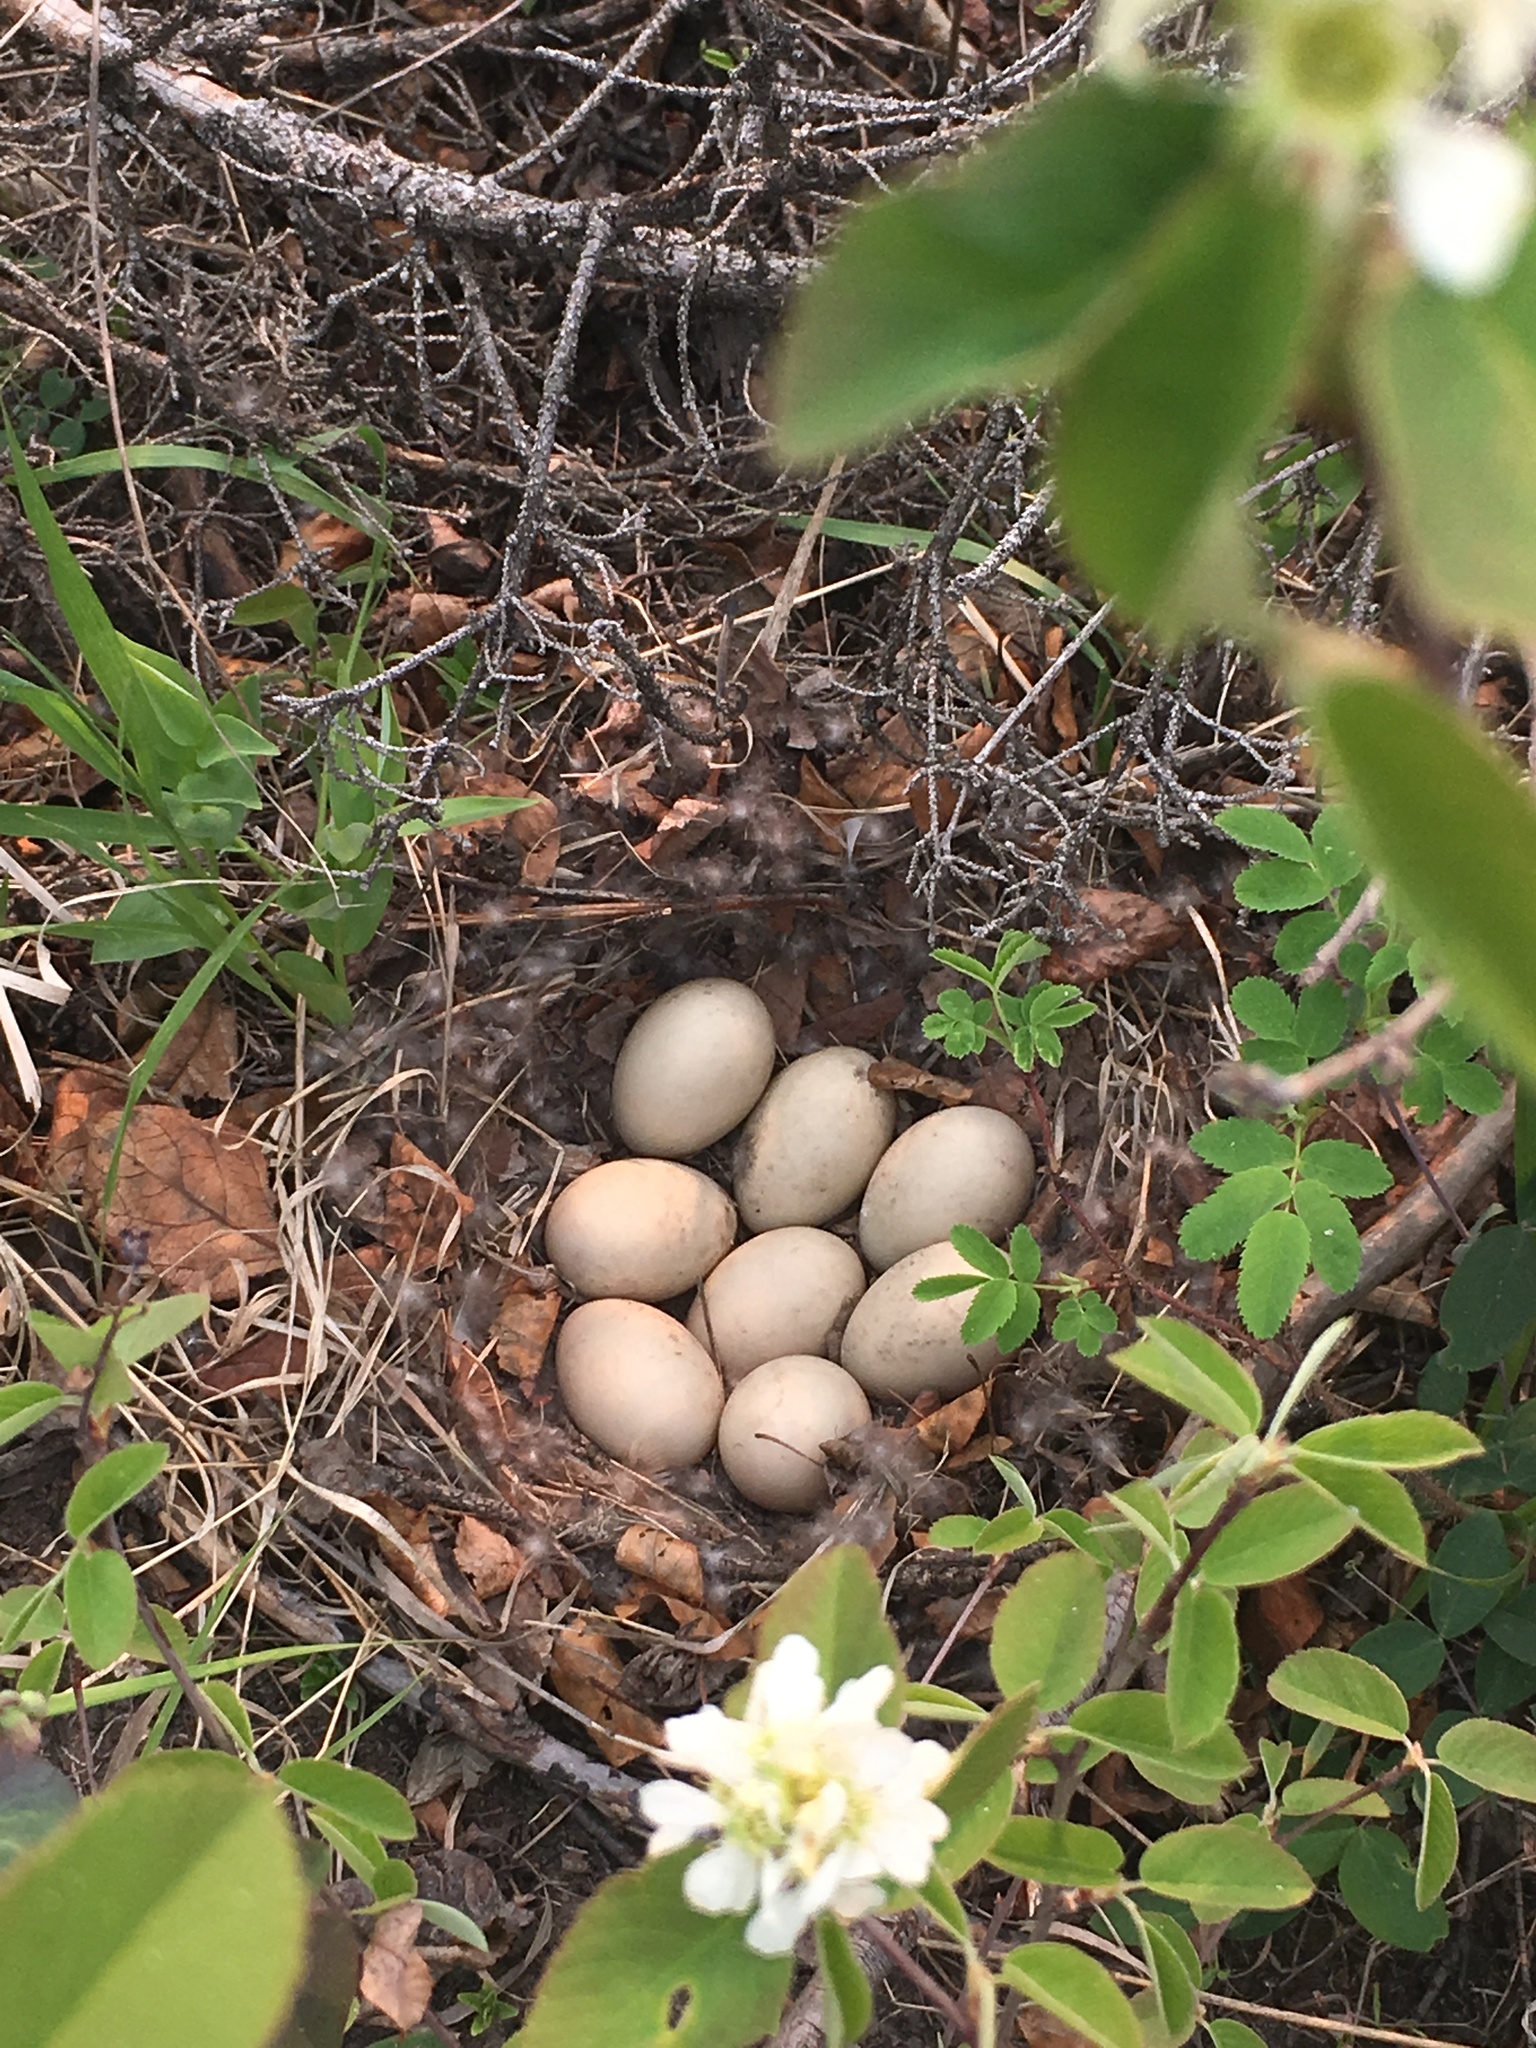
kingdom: Animalia
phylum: Chordata
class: Aves
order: Anseriformes
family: Anatidae
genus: Anas
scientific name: Anas platyrhynchos
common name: Mallard
